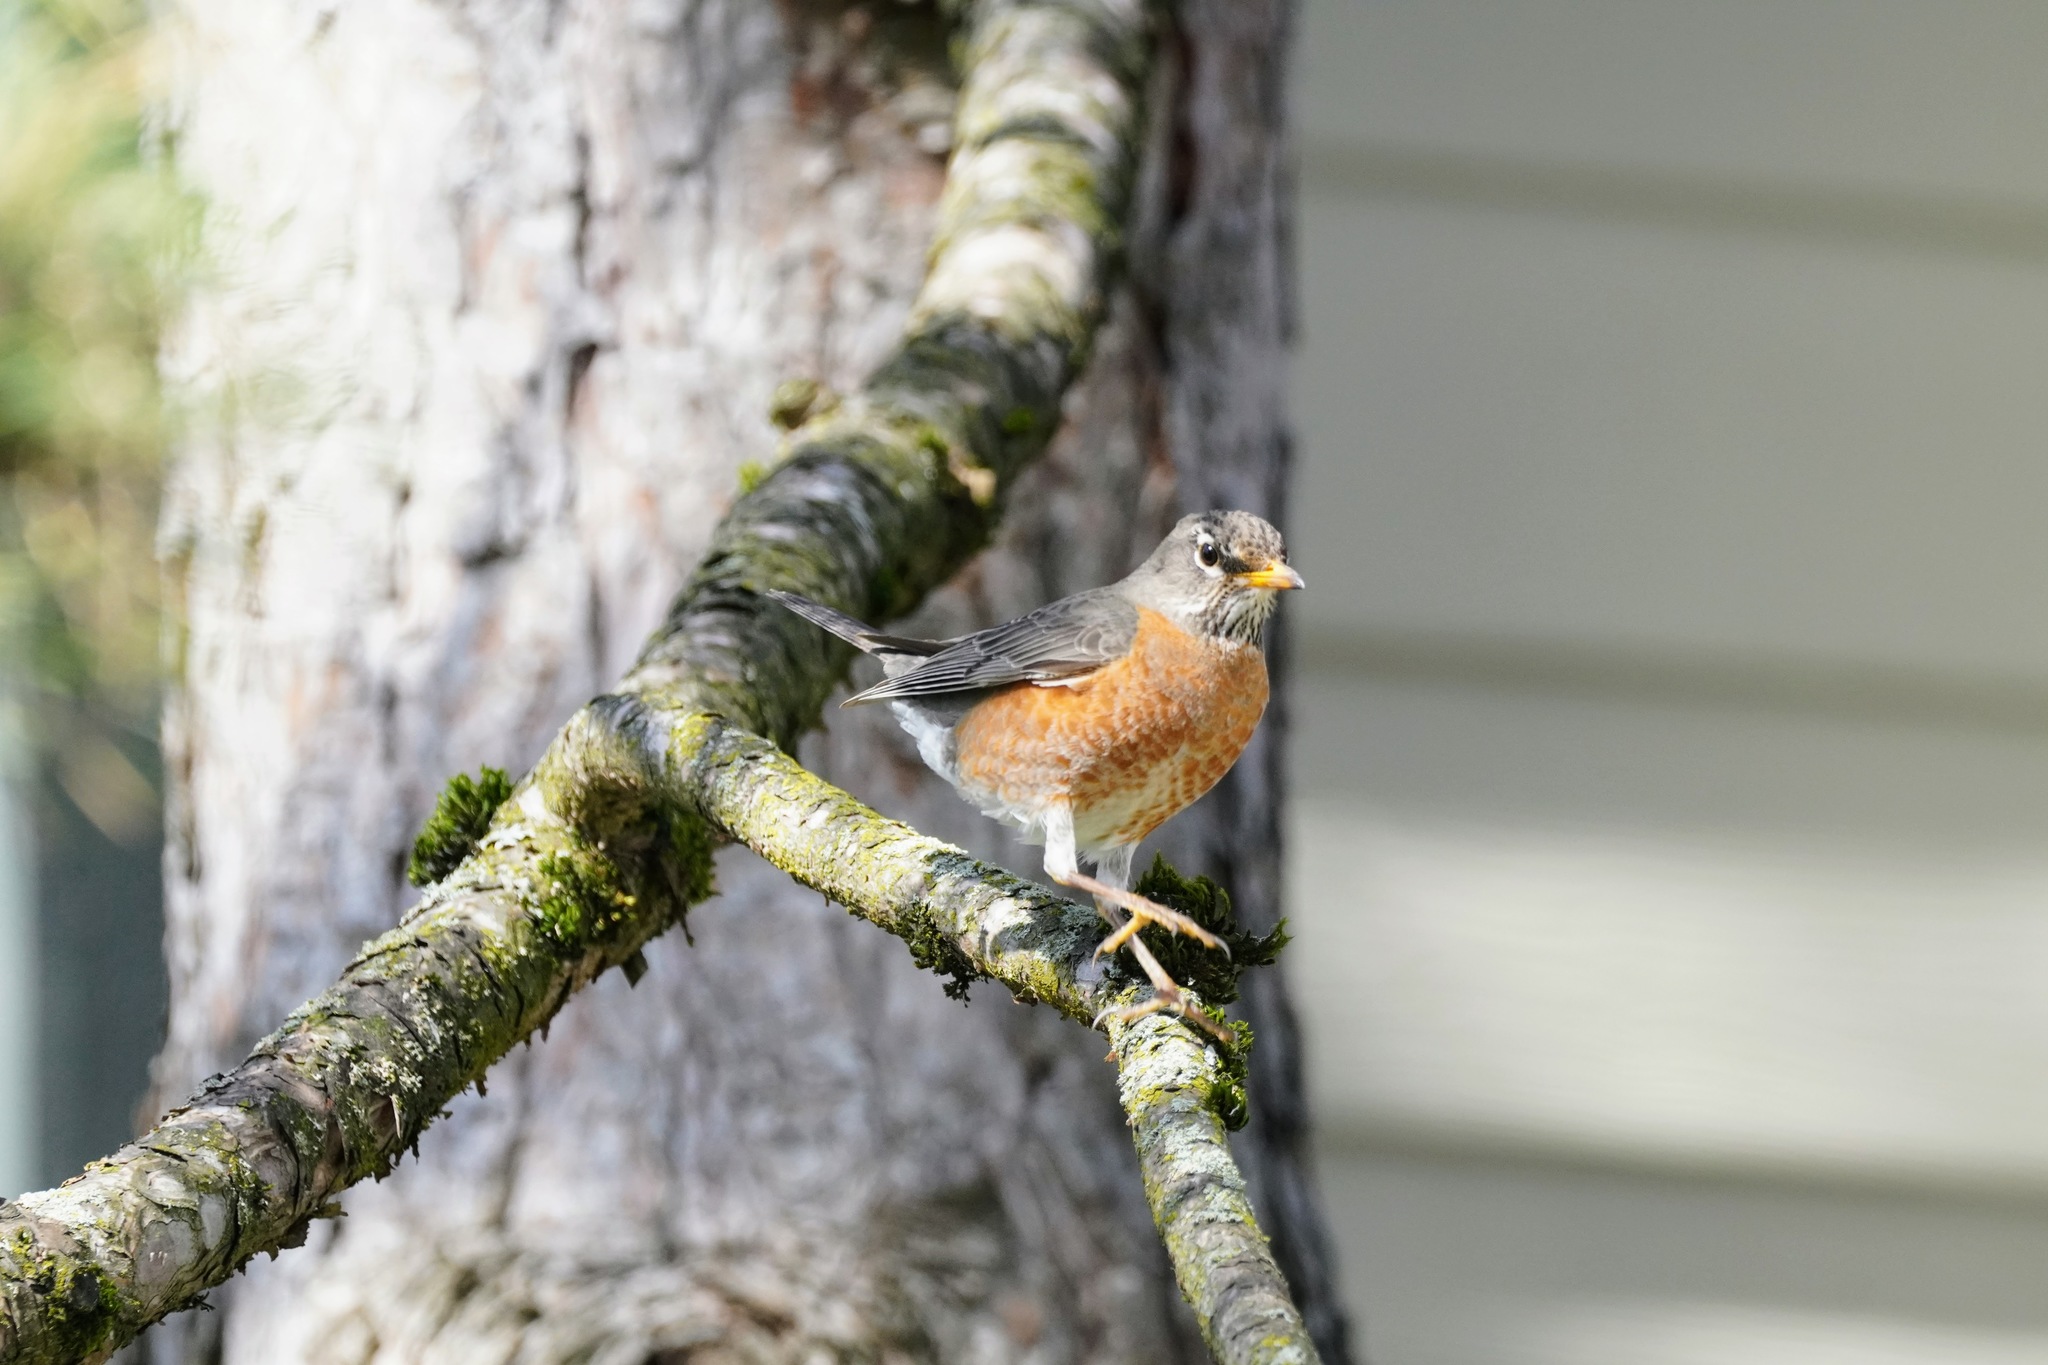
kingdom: Animalia
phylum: Chordata
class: Aves
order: Passeriformes
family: Turdidae
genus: Turdus
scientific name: Turdus migratorius
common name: American robin
